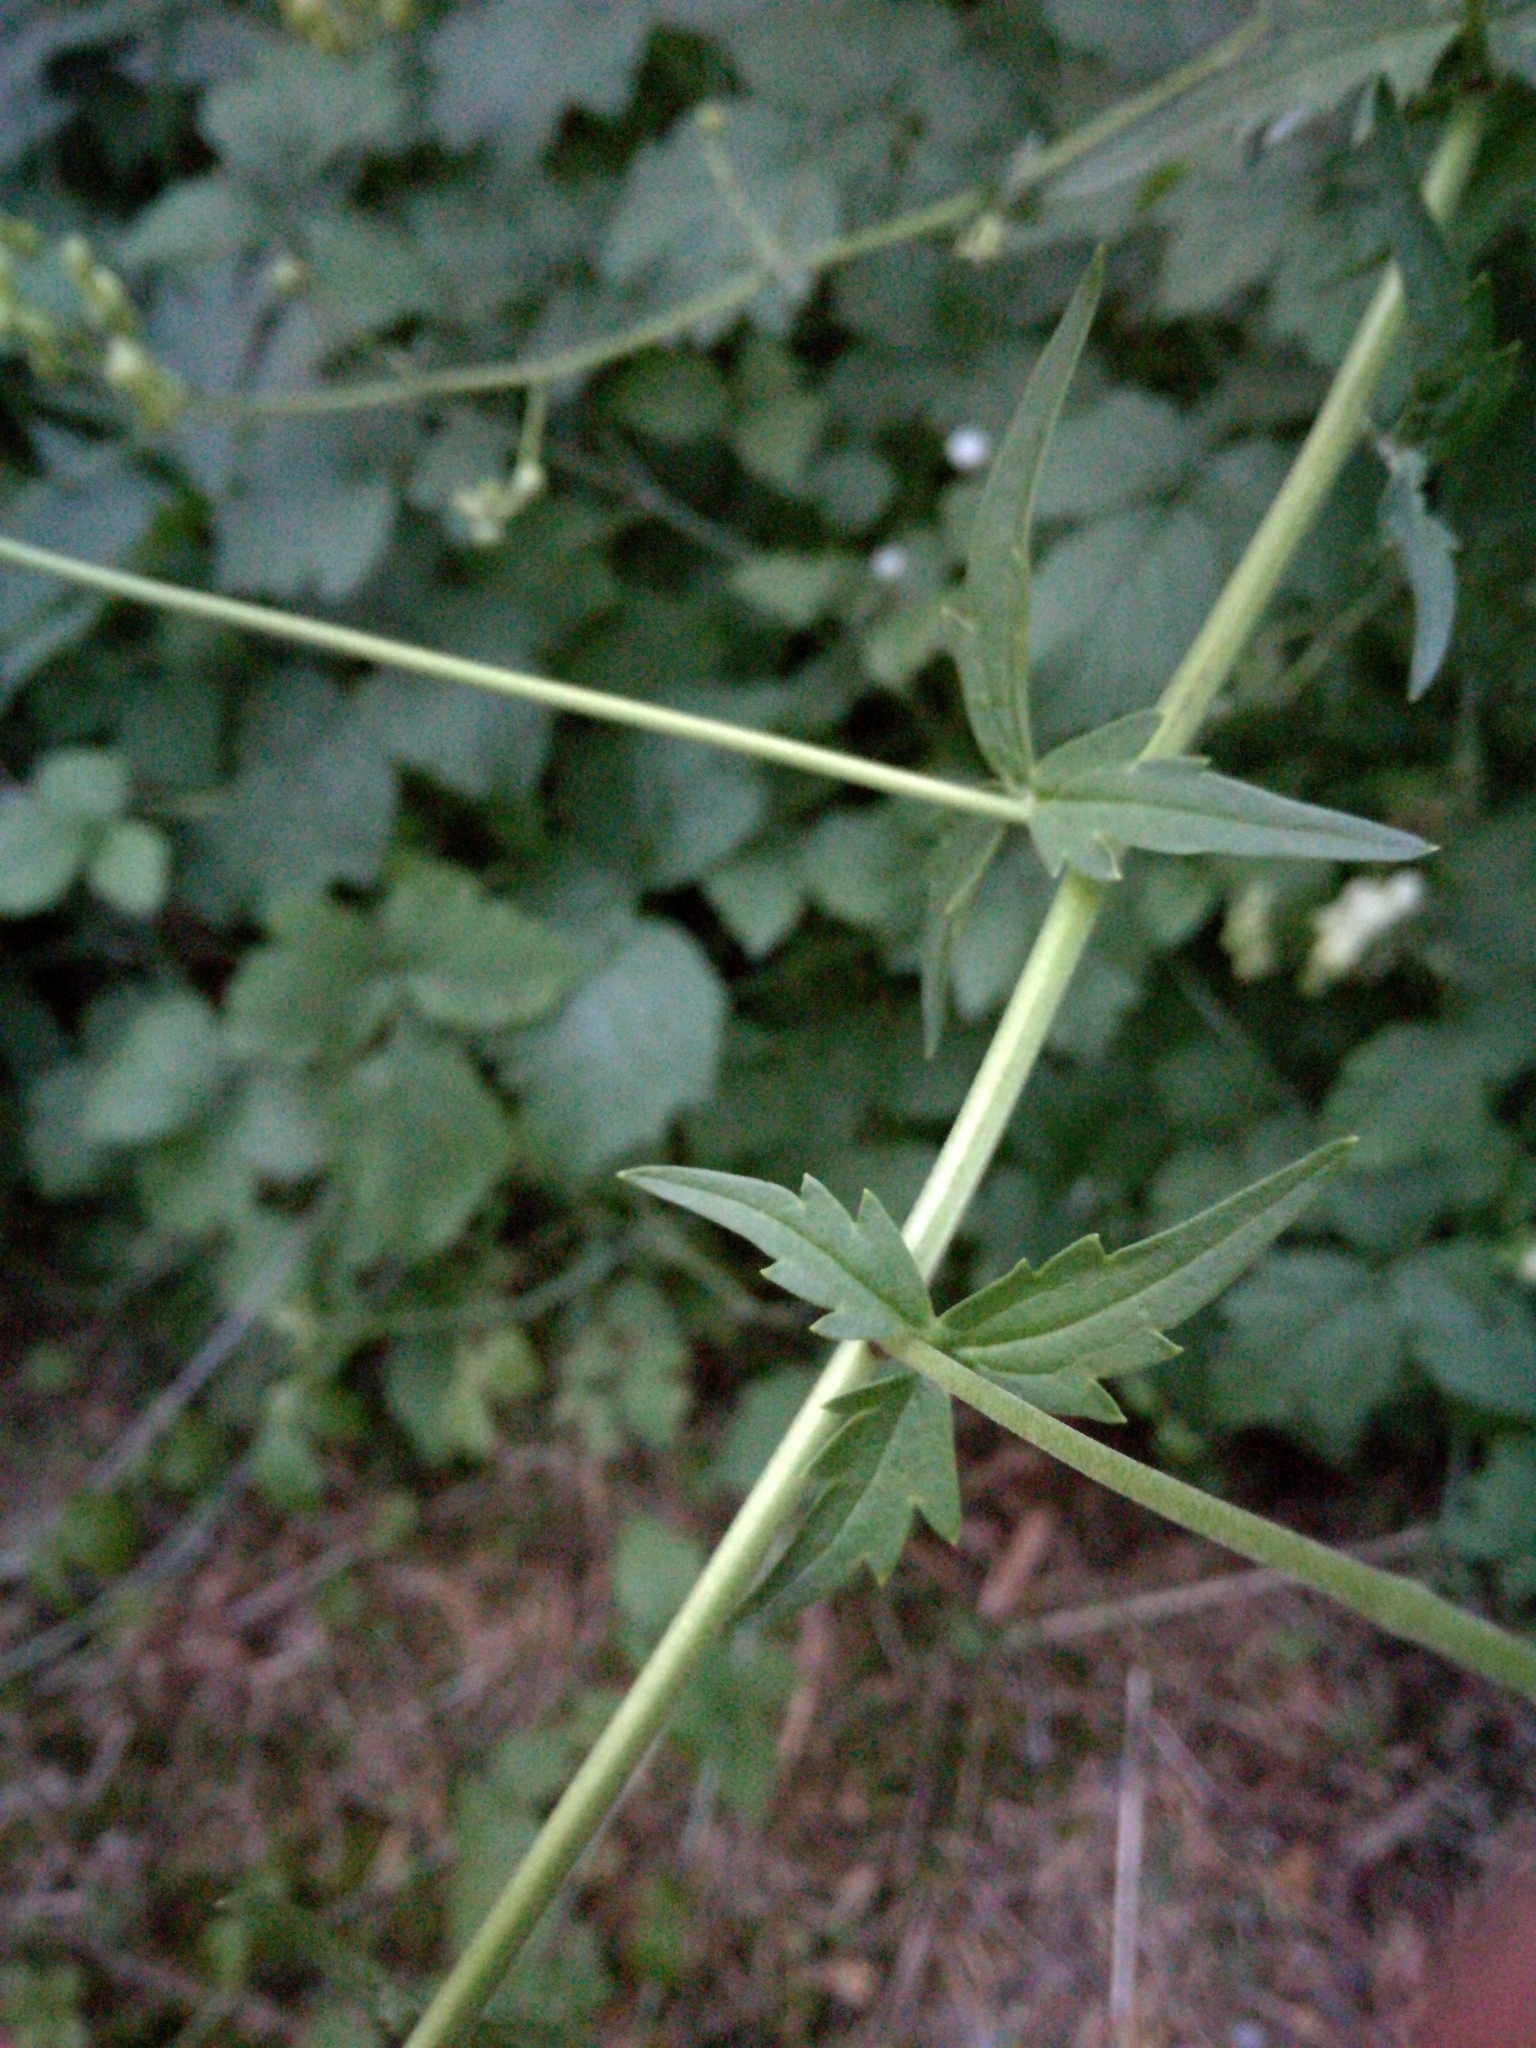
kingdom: Plantae
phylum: Tracheophyta
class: Magnoliopsida
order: Ranunculales
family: Ranunculaceae
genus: Aconitum
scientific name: Aconitum lycoctonum
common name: Wolf's-bane
